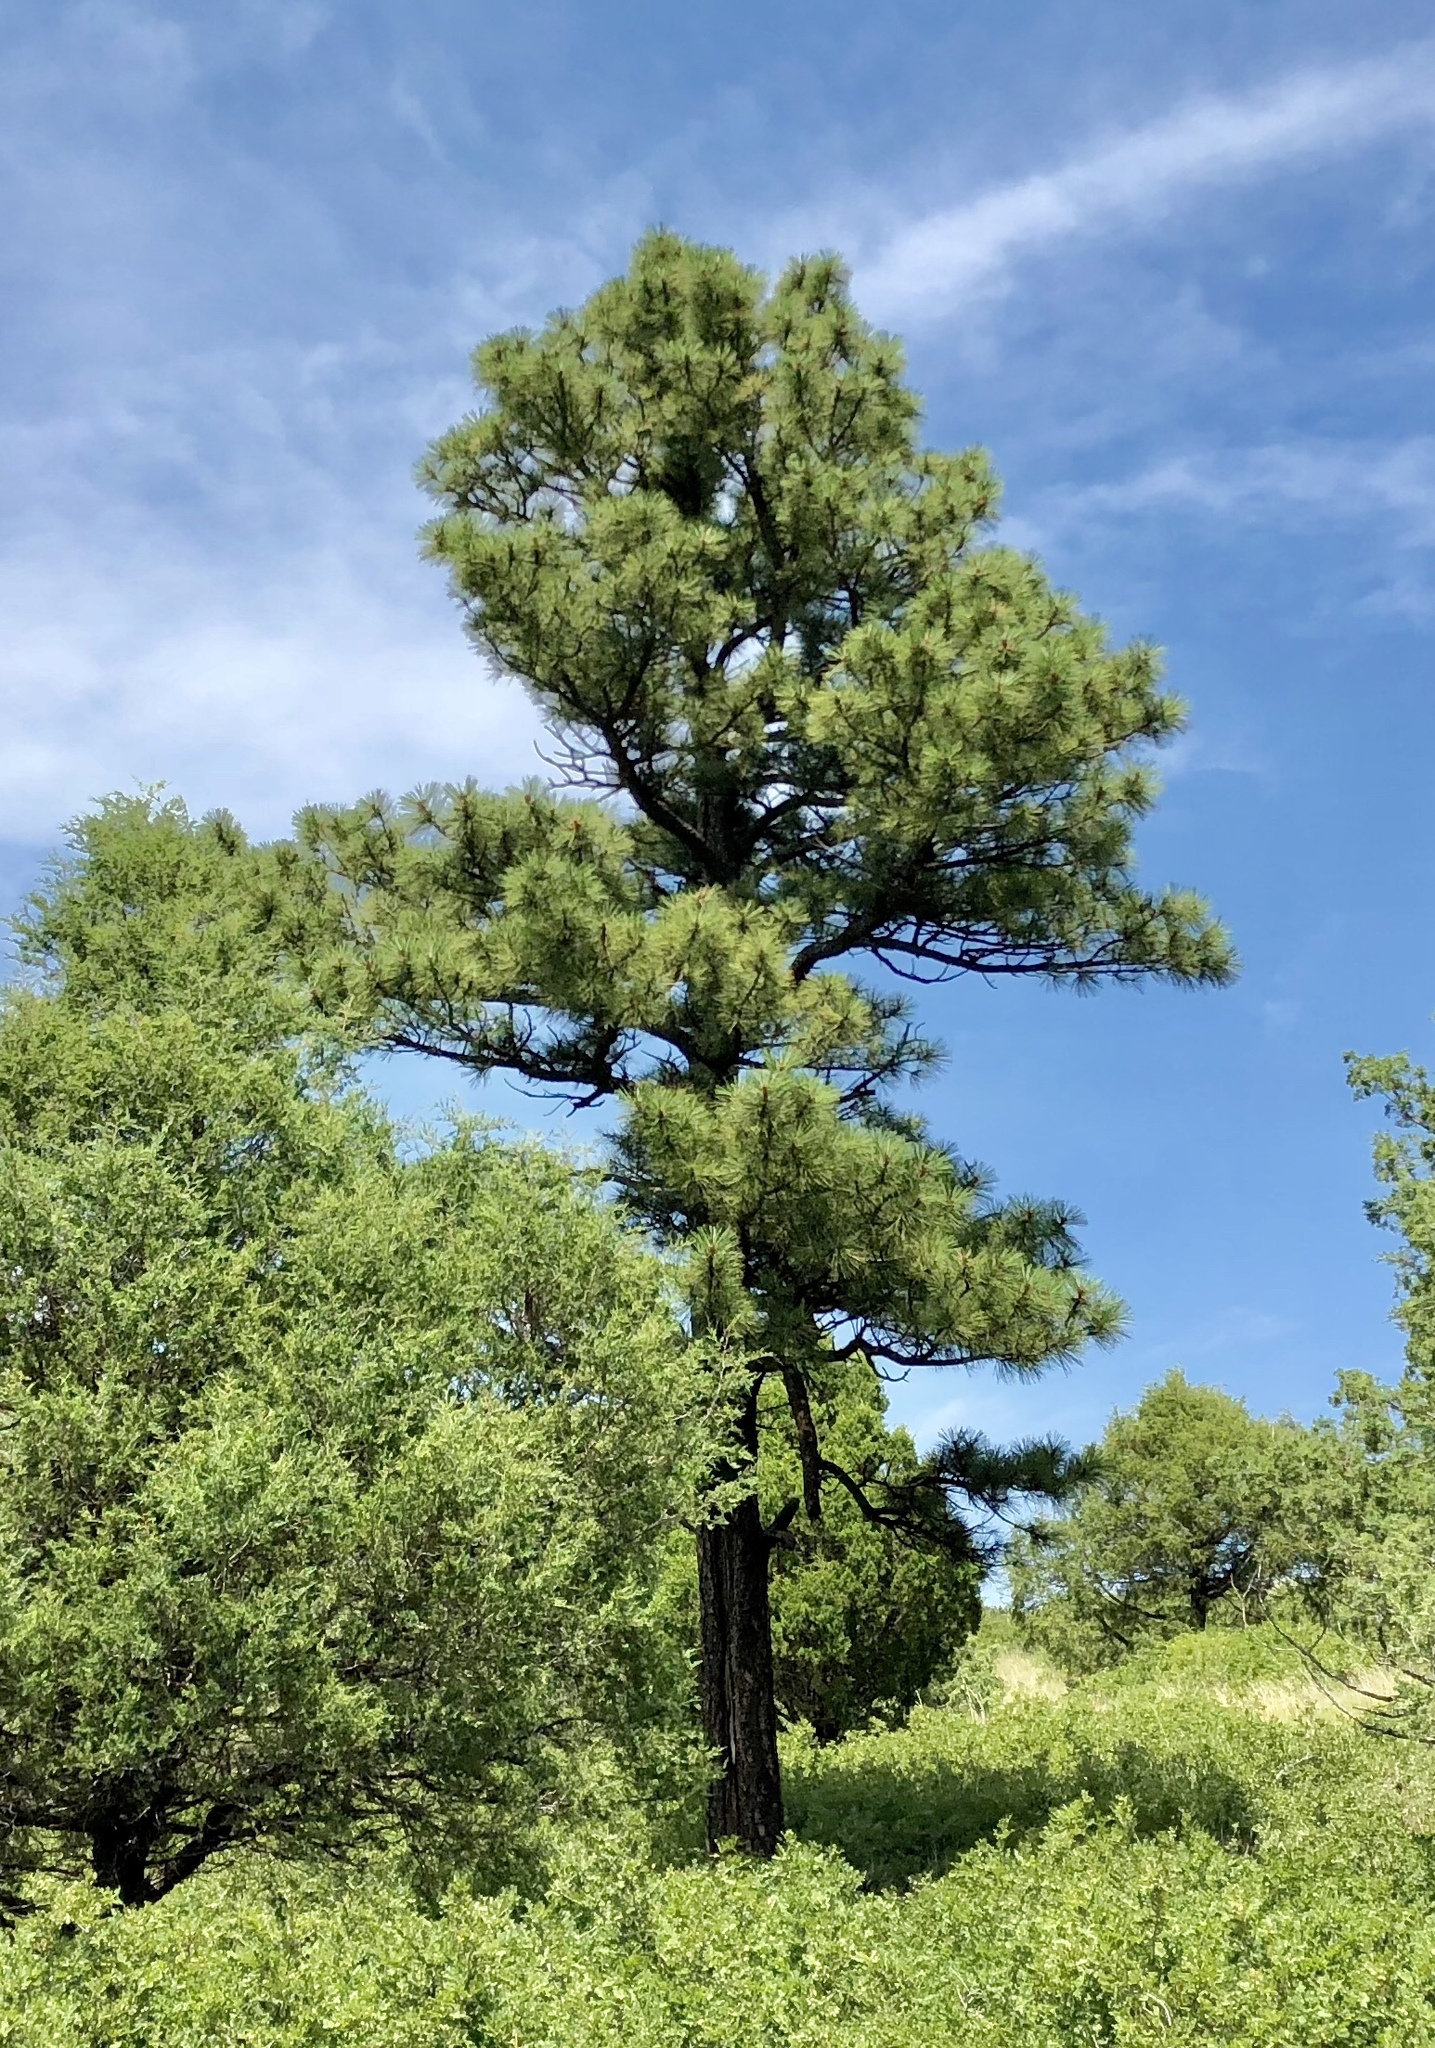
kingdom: Plantae
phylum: Tracheophyta
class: Pinopsida
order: Pinales
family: Pinaceae
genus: Pinus
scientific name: Pinus ponderosa
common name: Western yellow-pine
